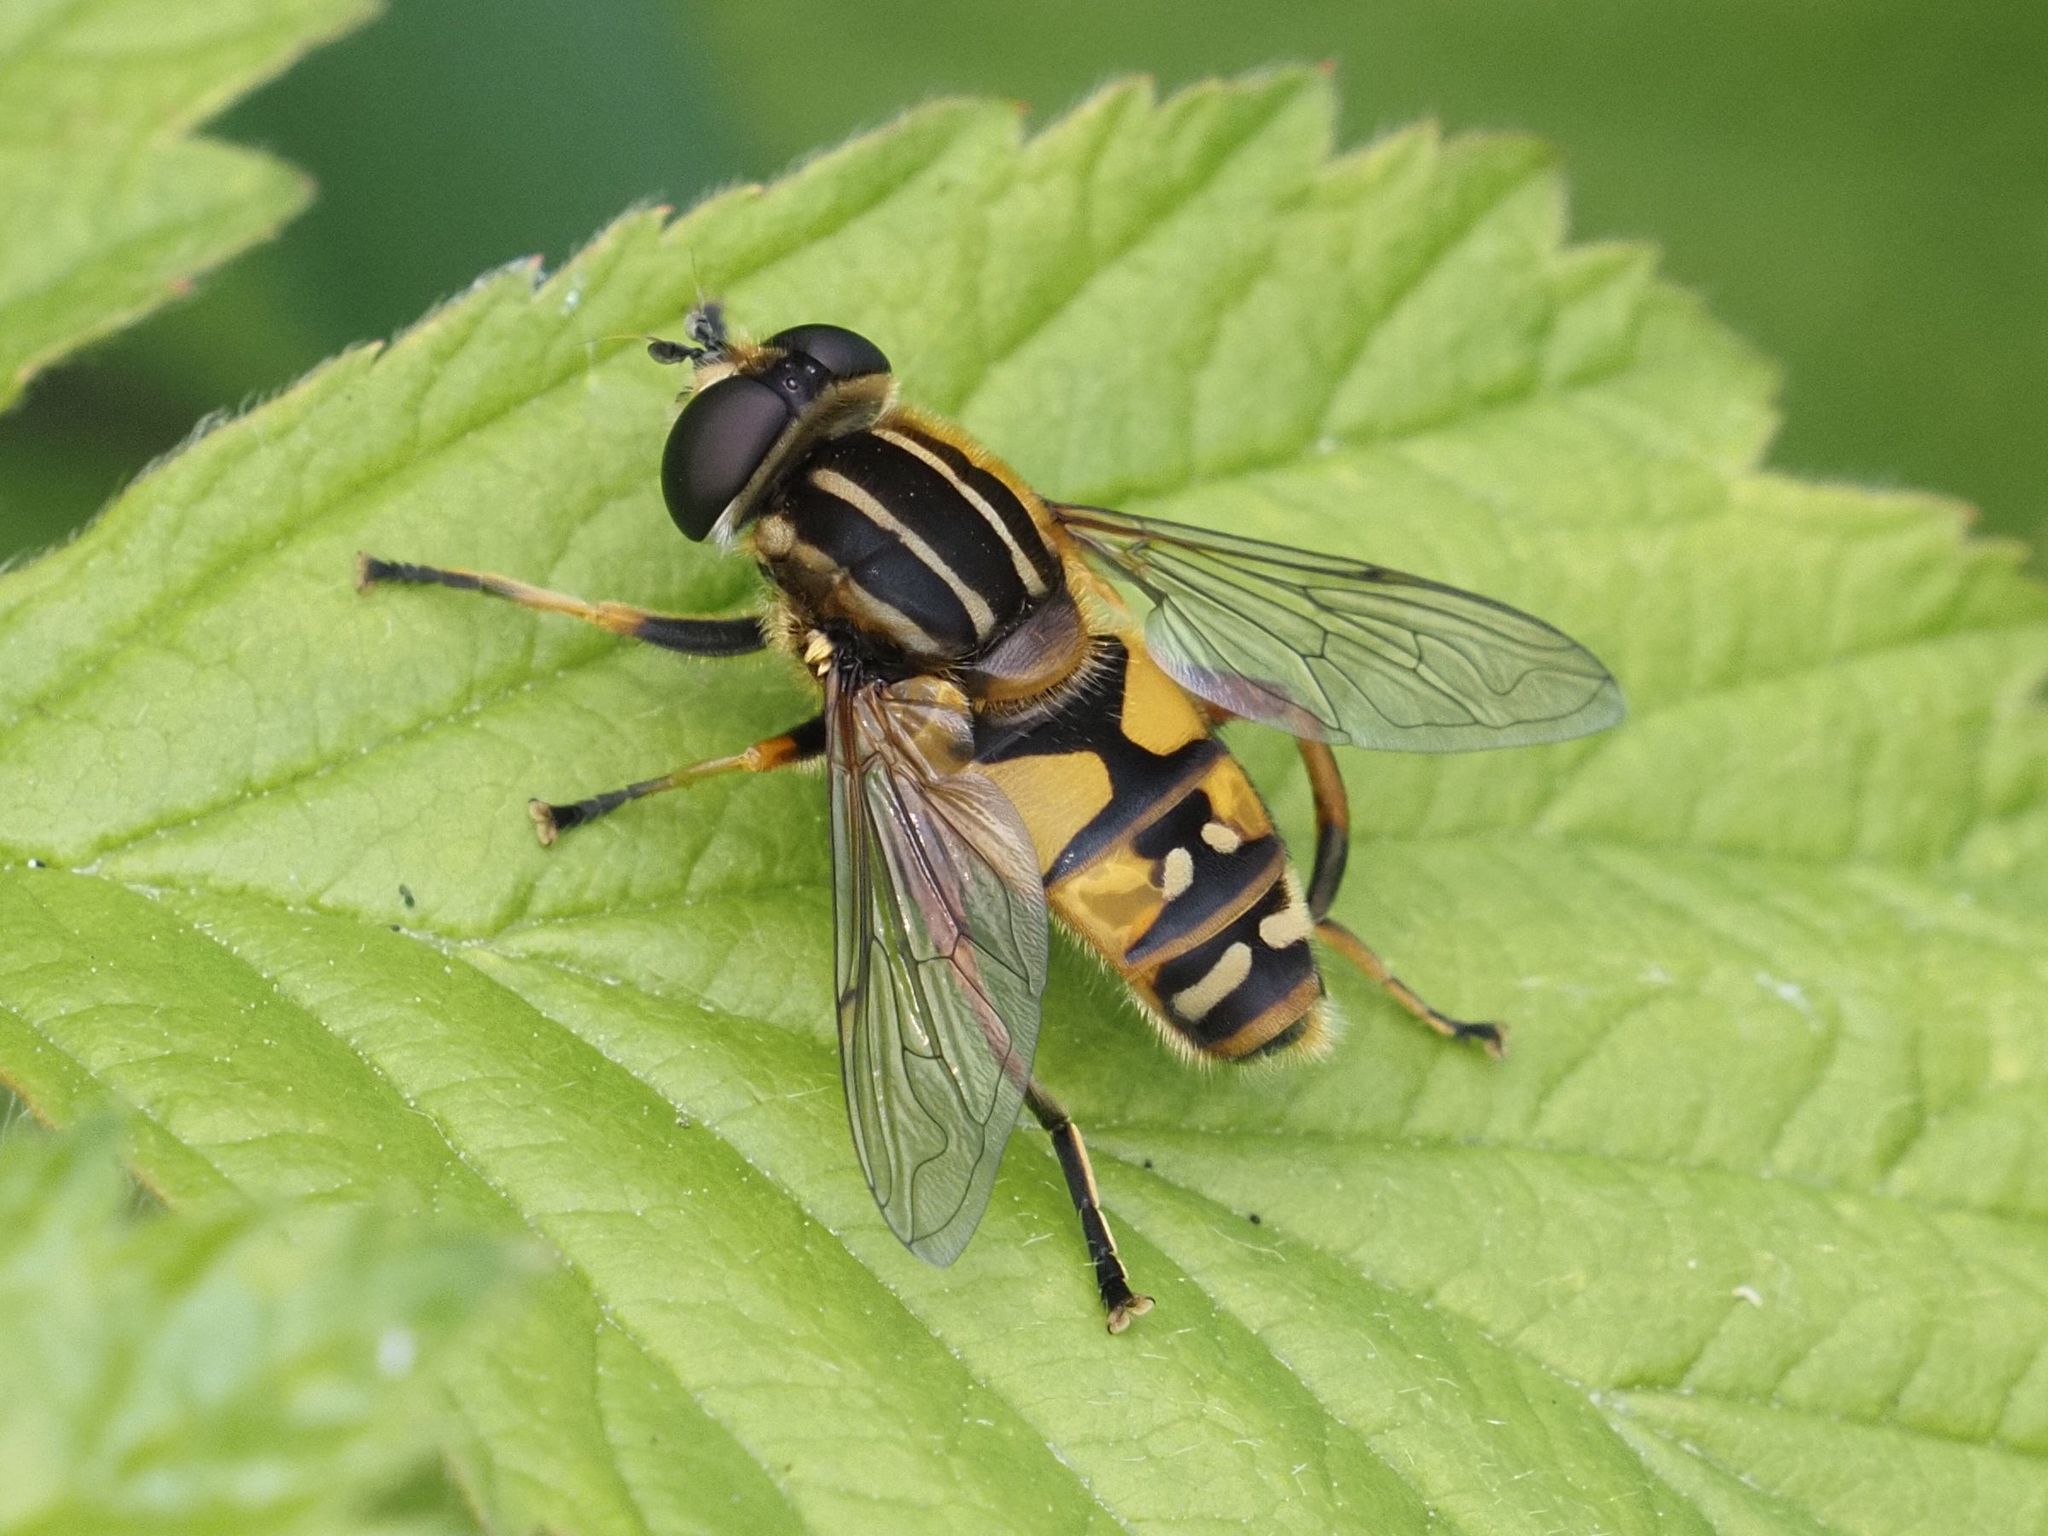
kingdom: Animalia
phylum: Arthropoda
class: Insecta
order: Diptera
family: Syrphidae
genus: Helophilus
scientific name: Helophilus pendulus
